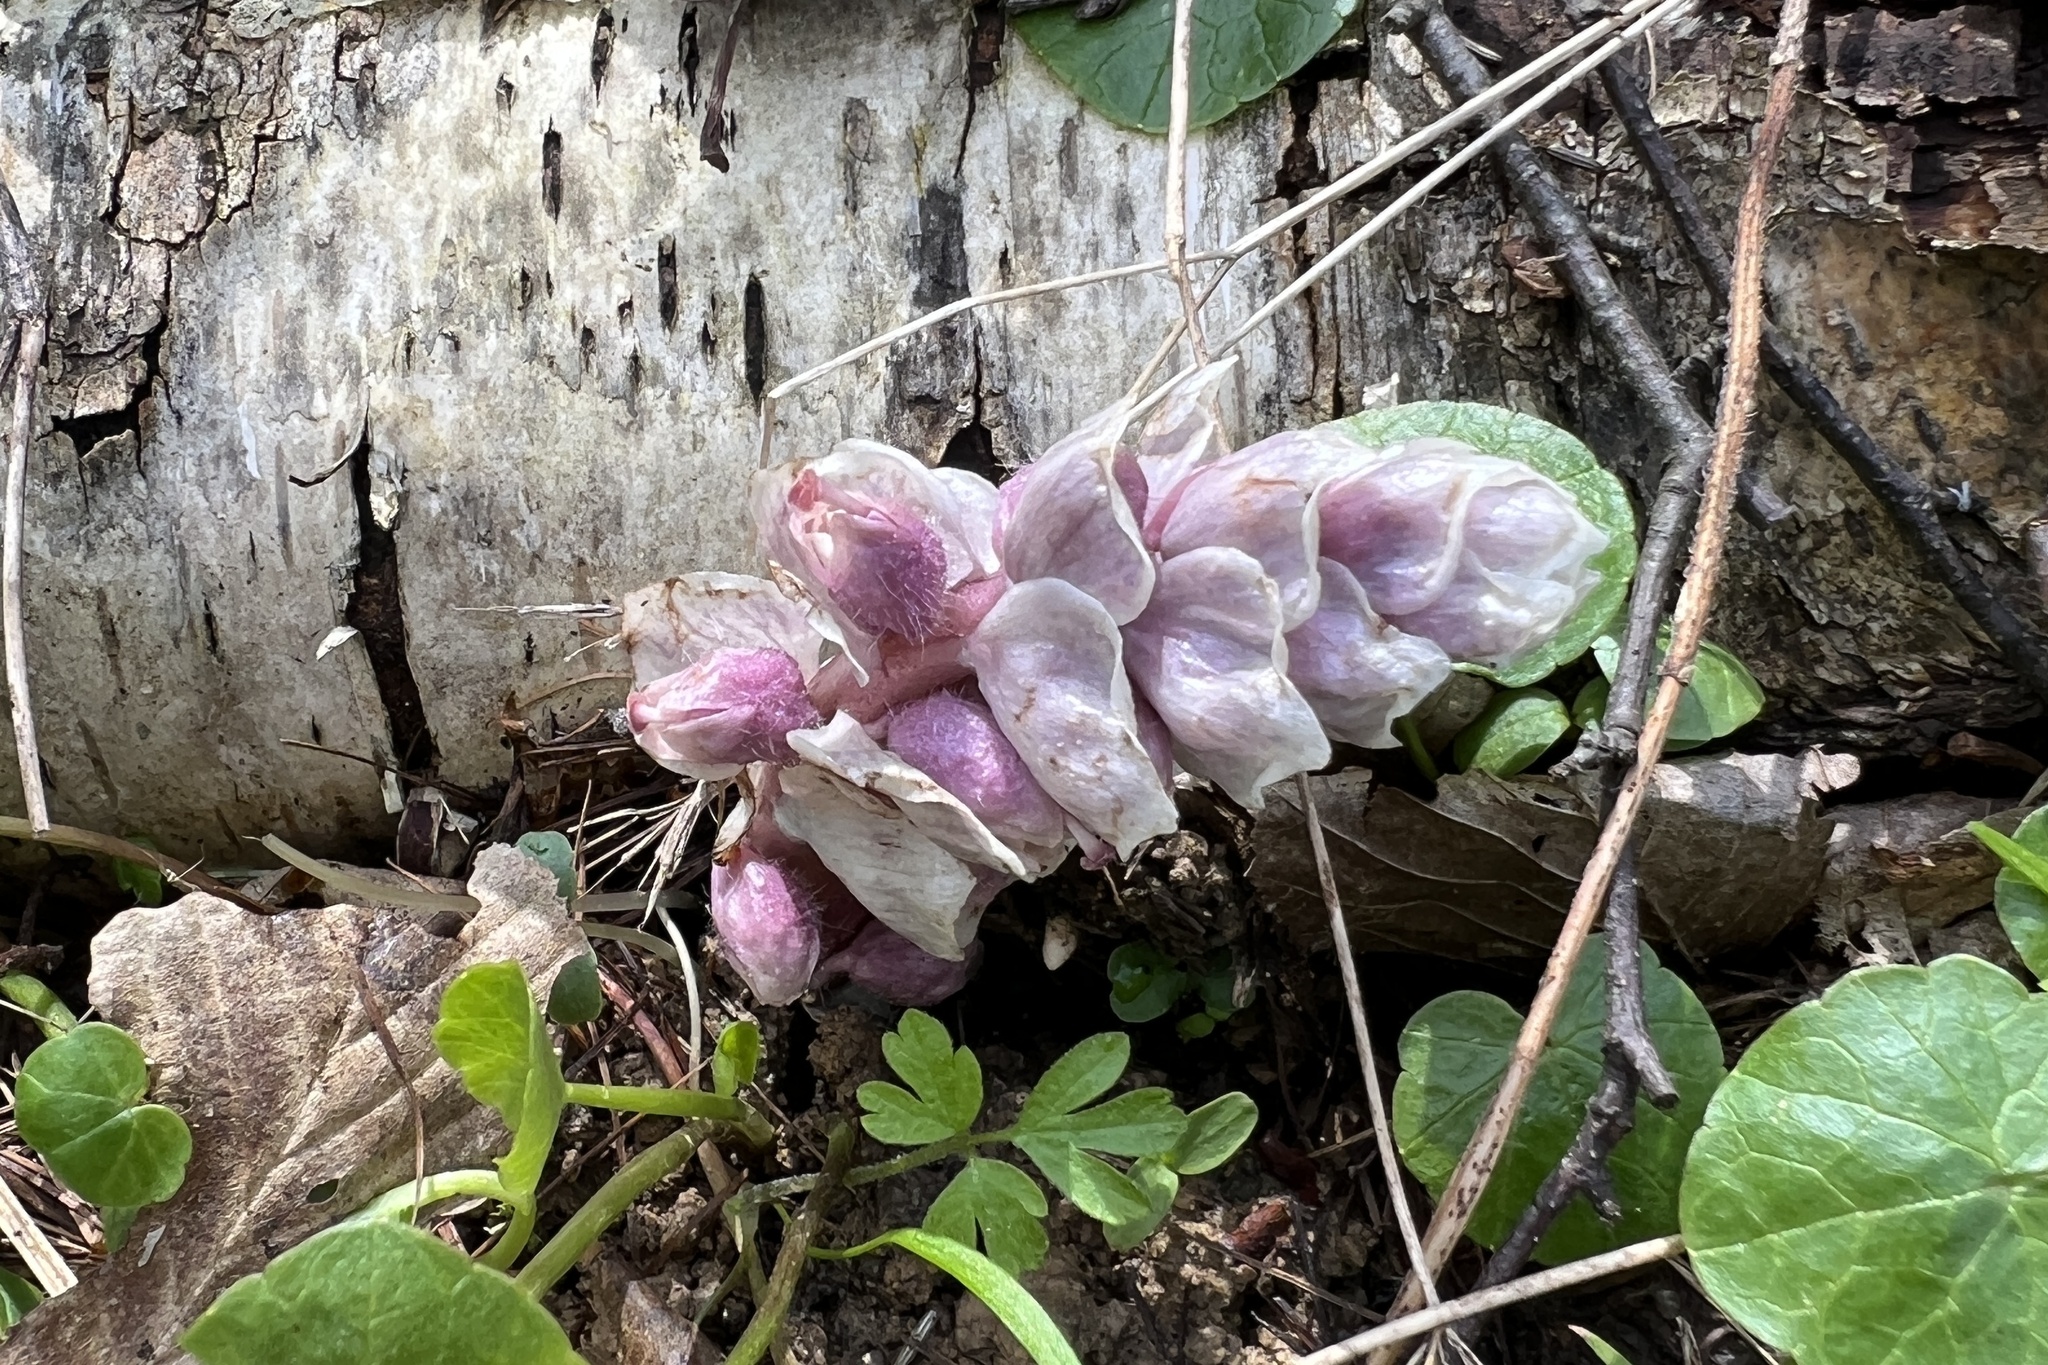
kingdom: Plantae
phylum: Tracheophyta
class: Magnoliopsida
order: Lamiales
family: Orobanchaceae
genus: Lathraea
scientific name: Lathraea squamaria
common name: Toothwort
